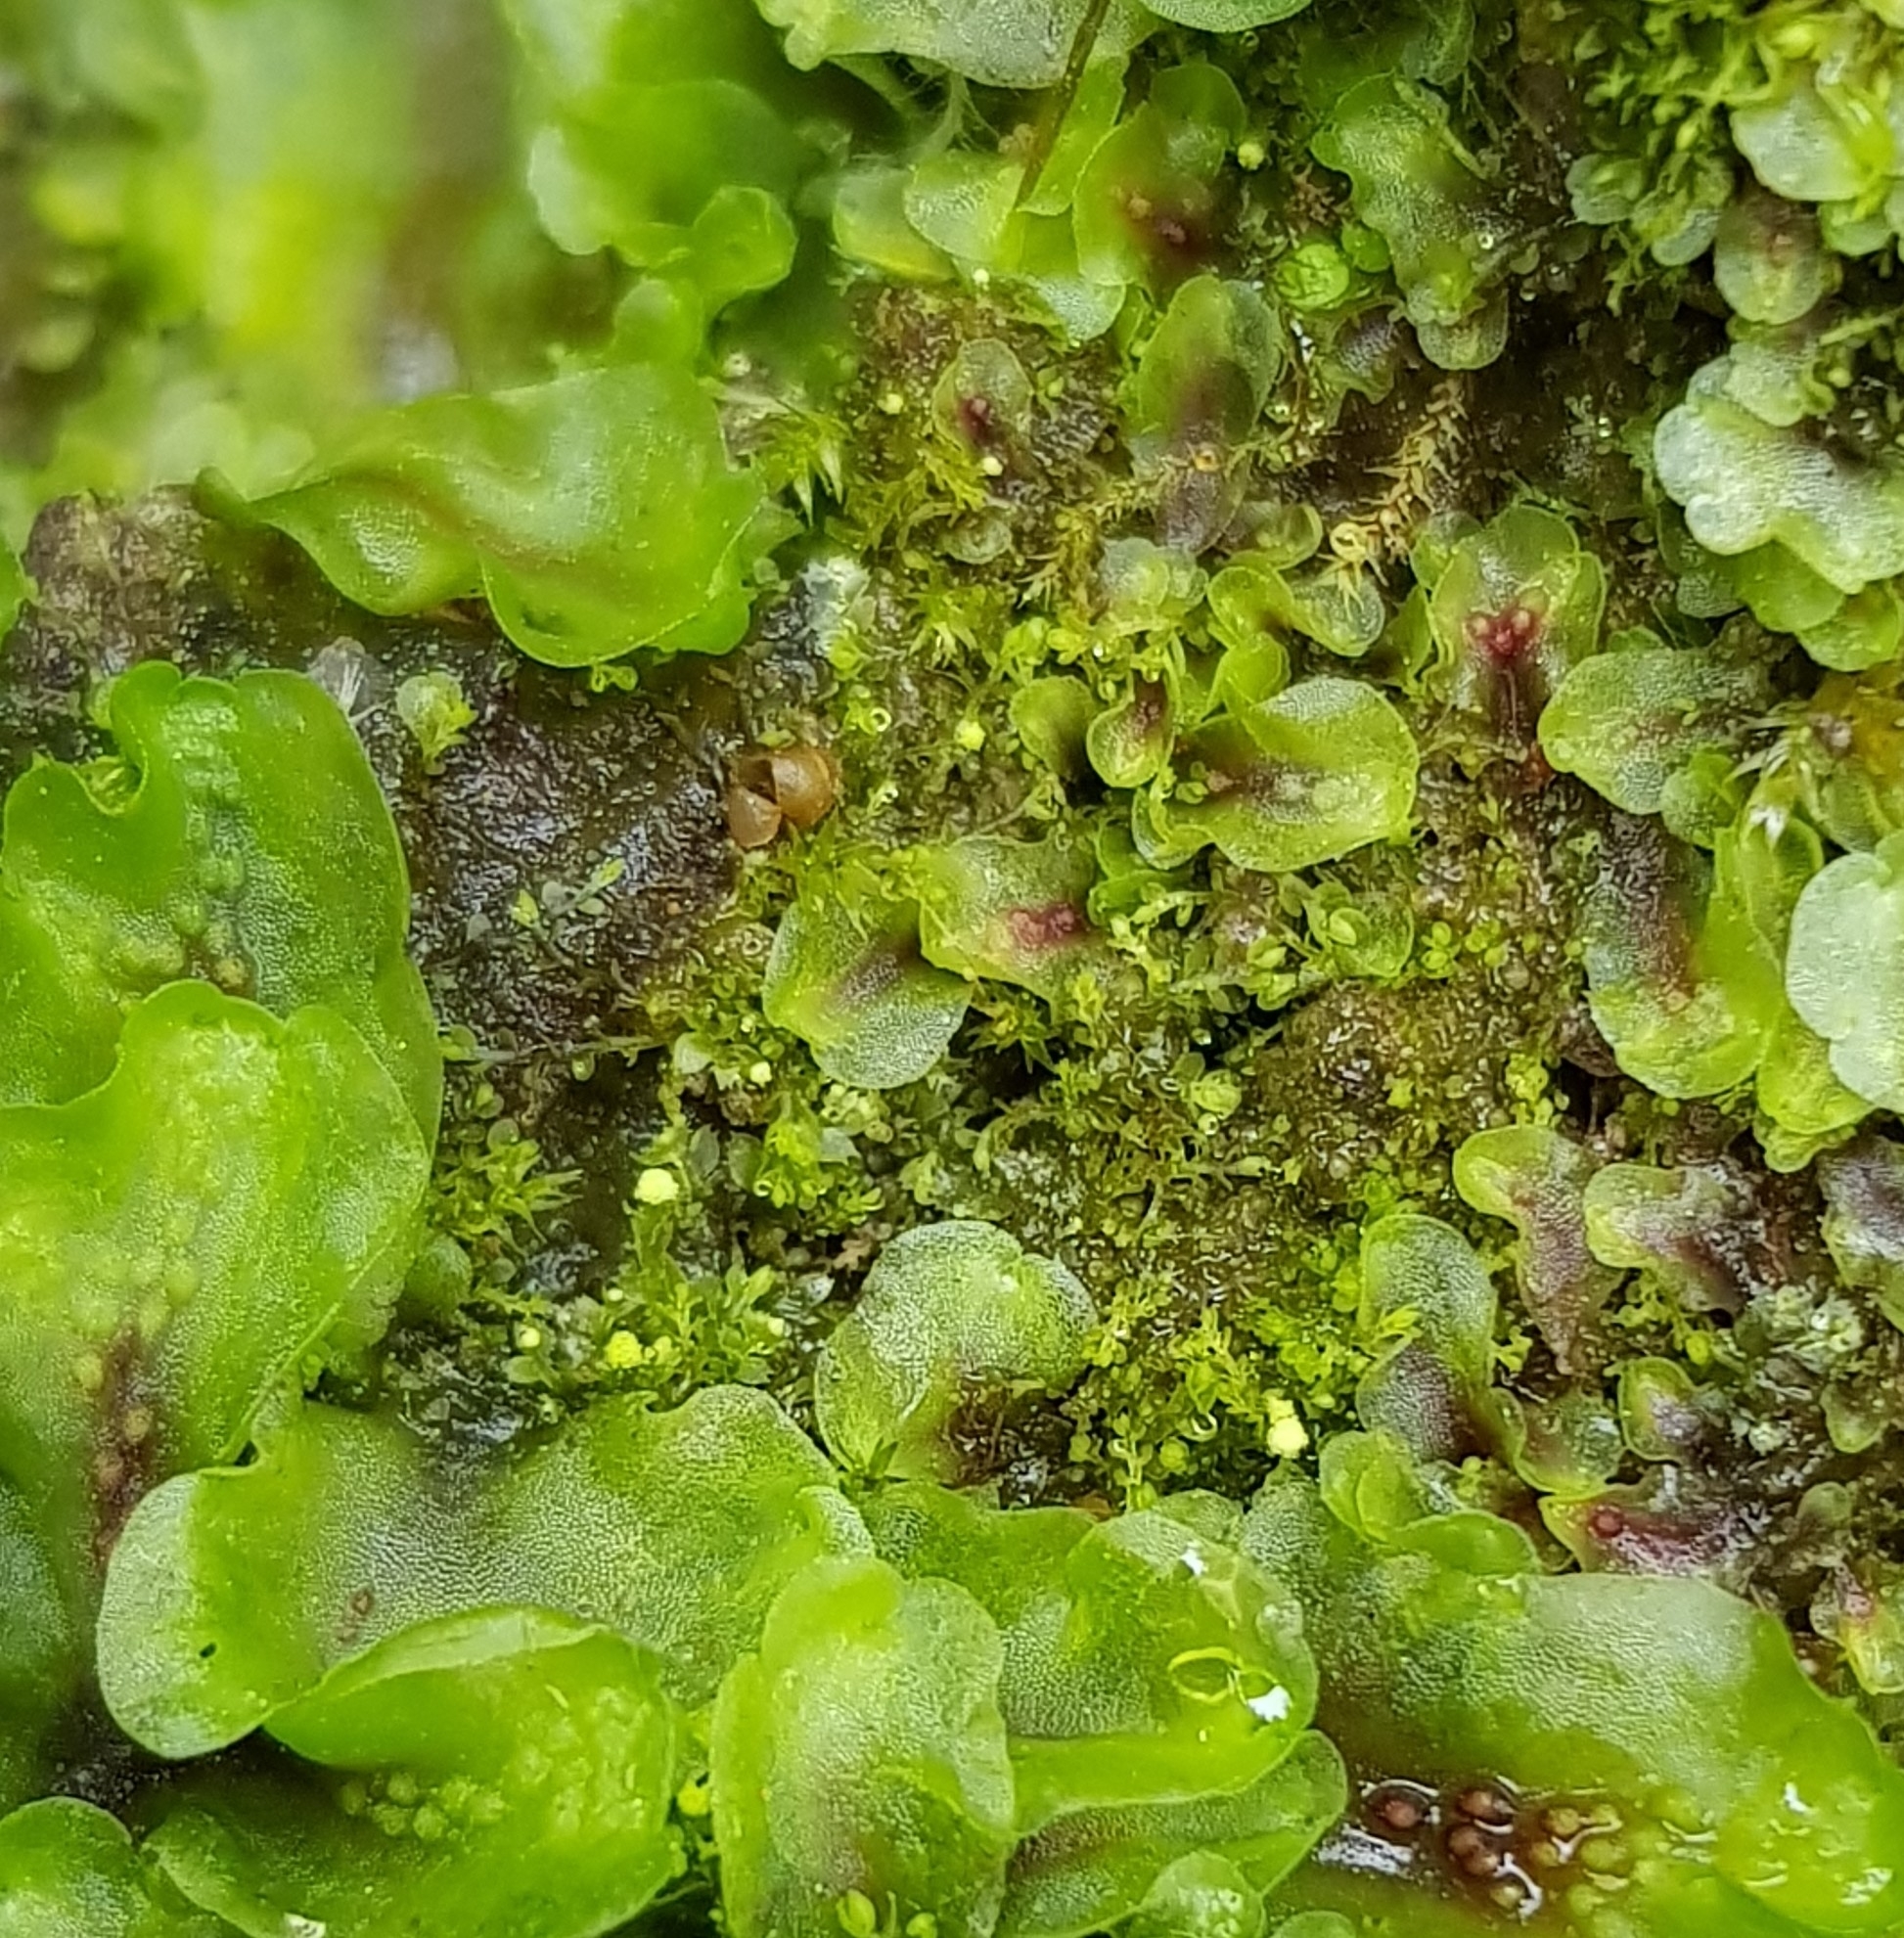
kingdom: Plantae
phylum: Marchantiophyta
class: Jungermanniopsida
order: Jungermanniales
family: Calypogeiaceae
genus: Asperifolia
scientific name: Asperifolia arguta
